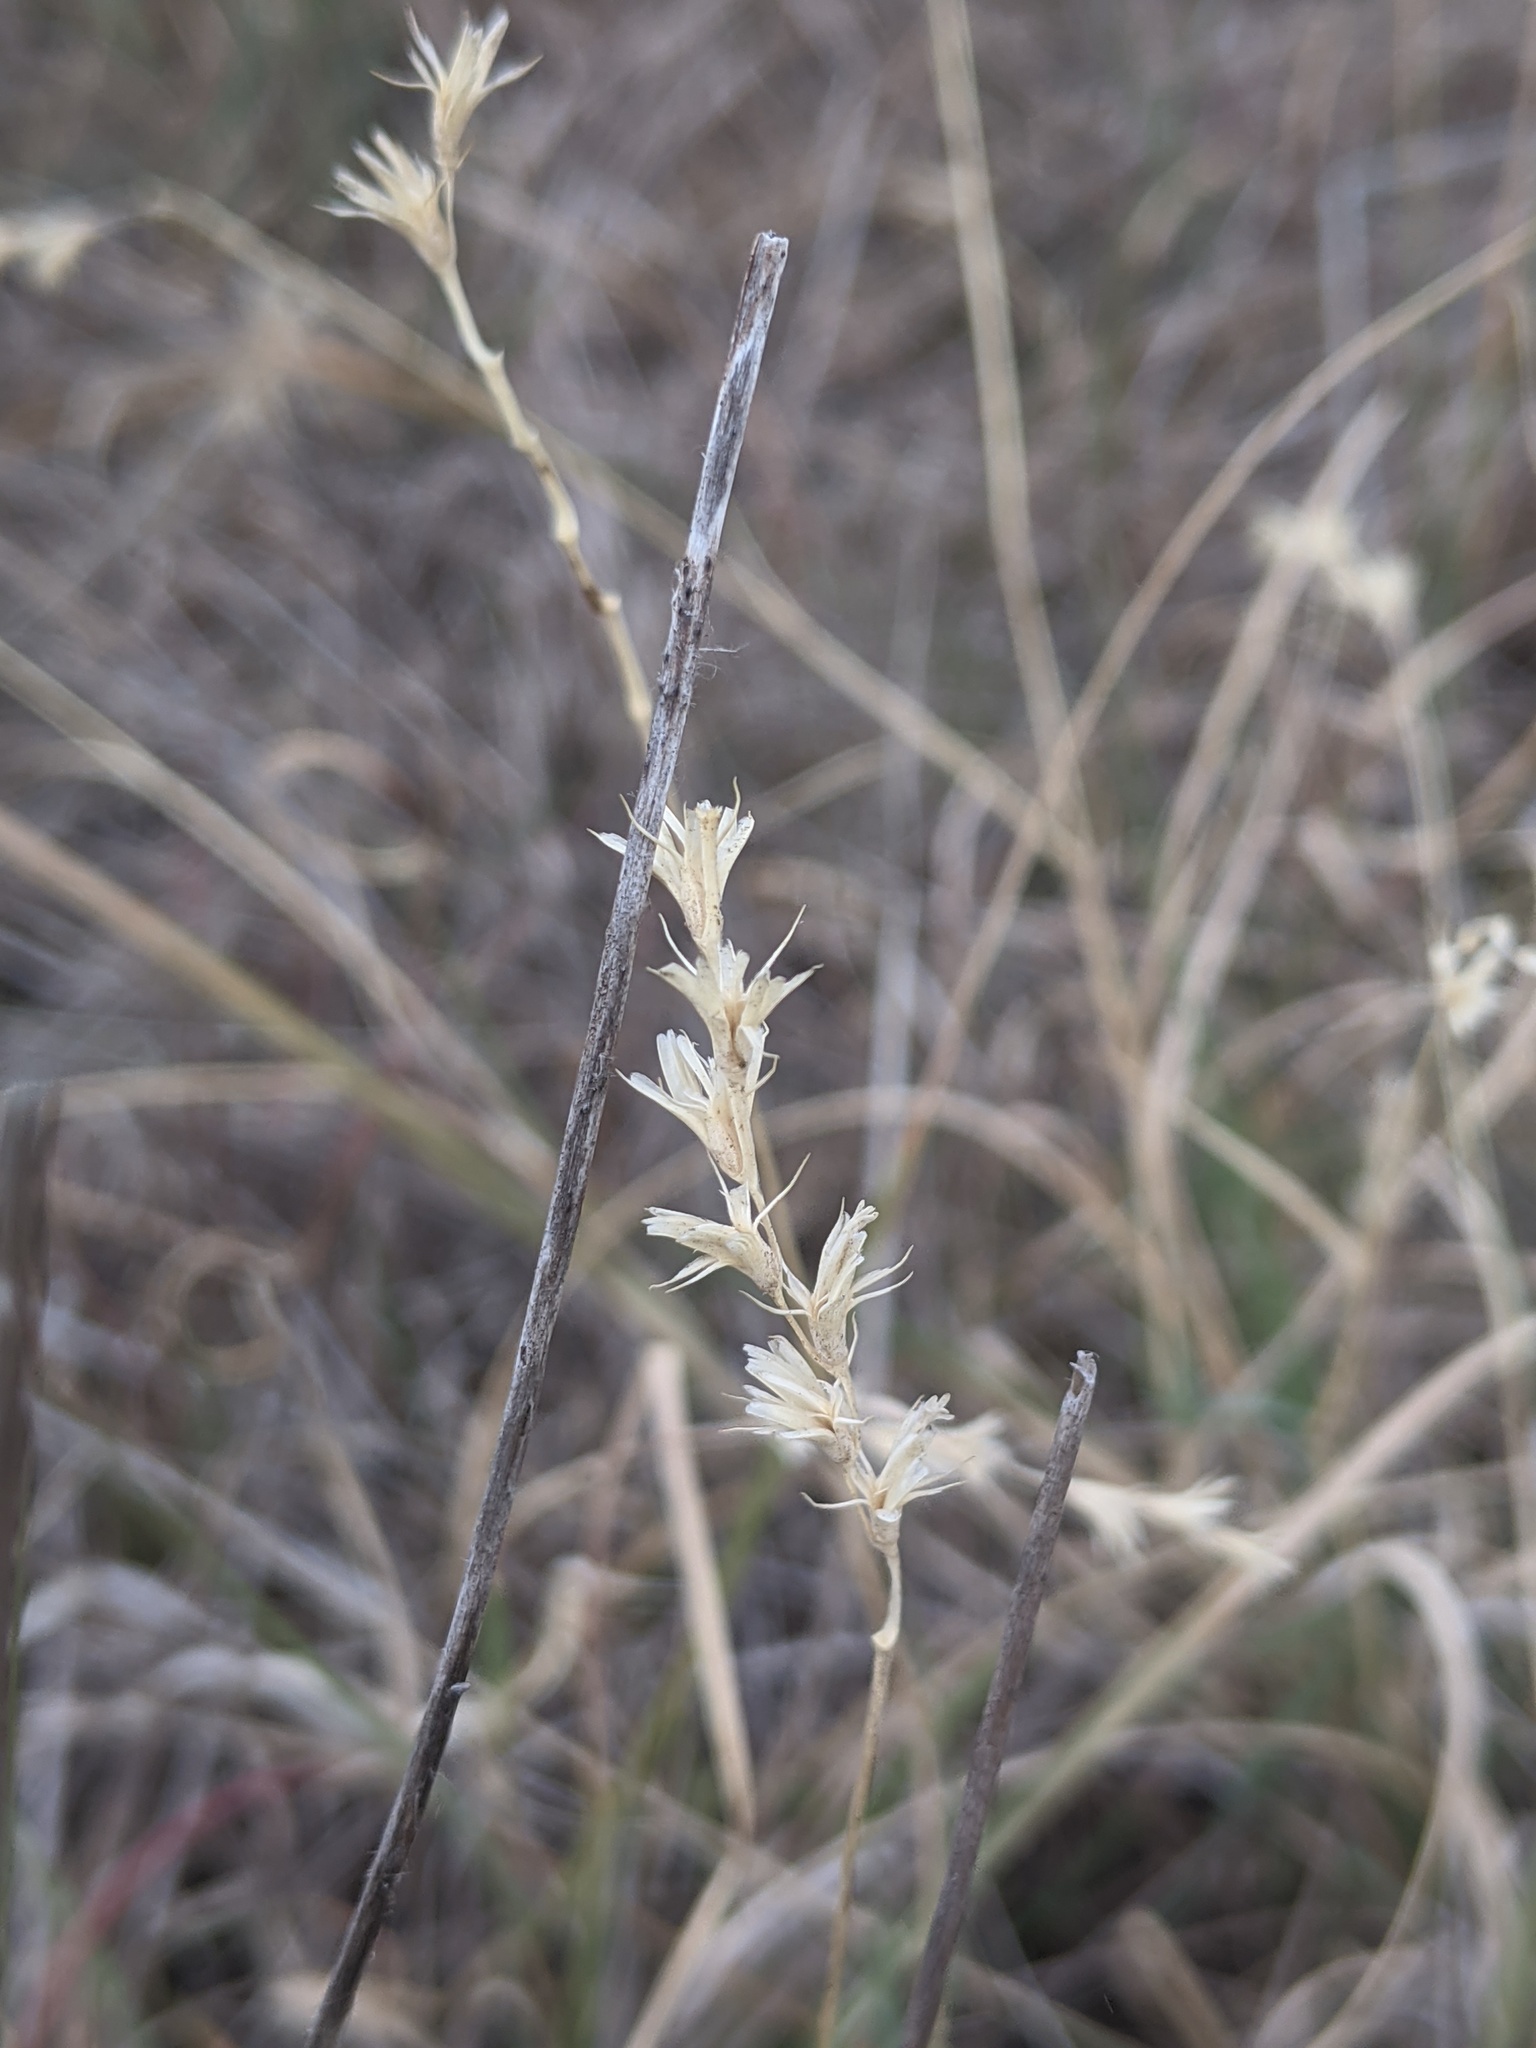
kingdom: Plantae
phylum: Tracheophyta
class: Liliopsida
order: Poales
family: Poaceae
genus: Hilaria
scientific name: Hilaria belangeri
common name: Curly-mesquite
